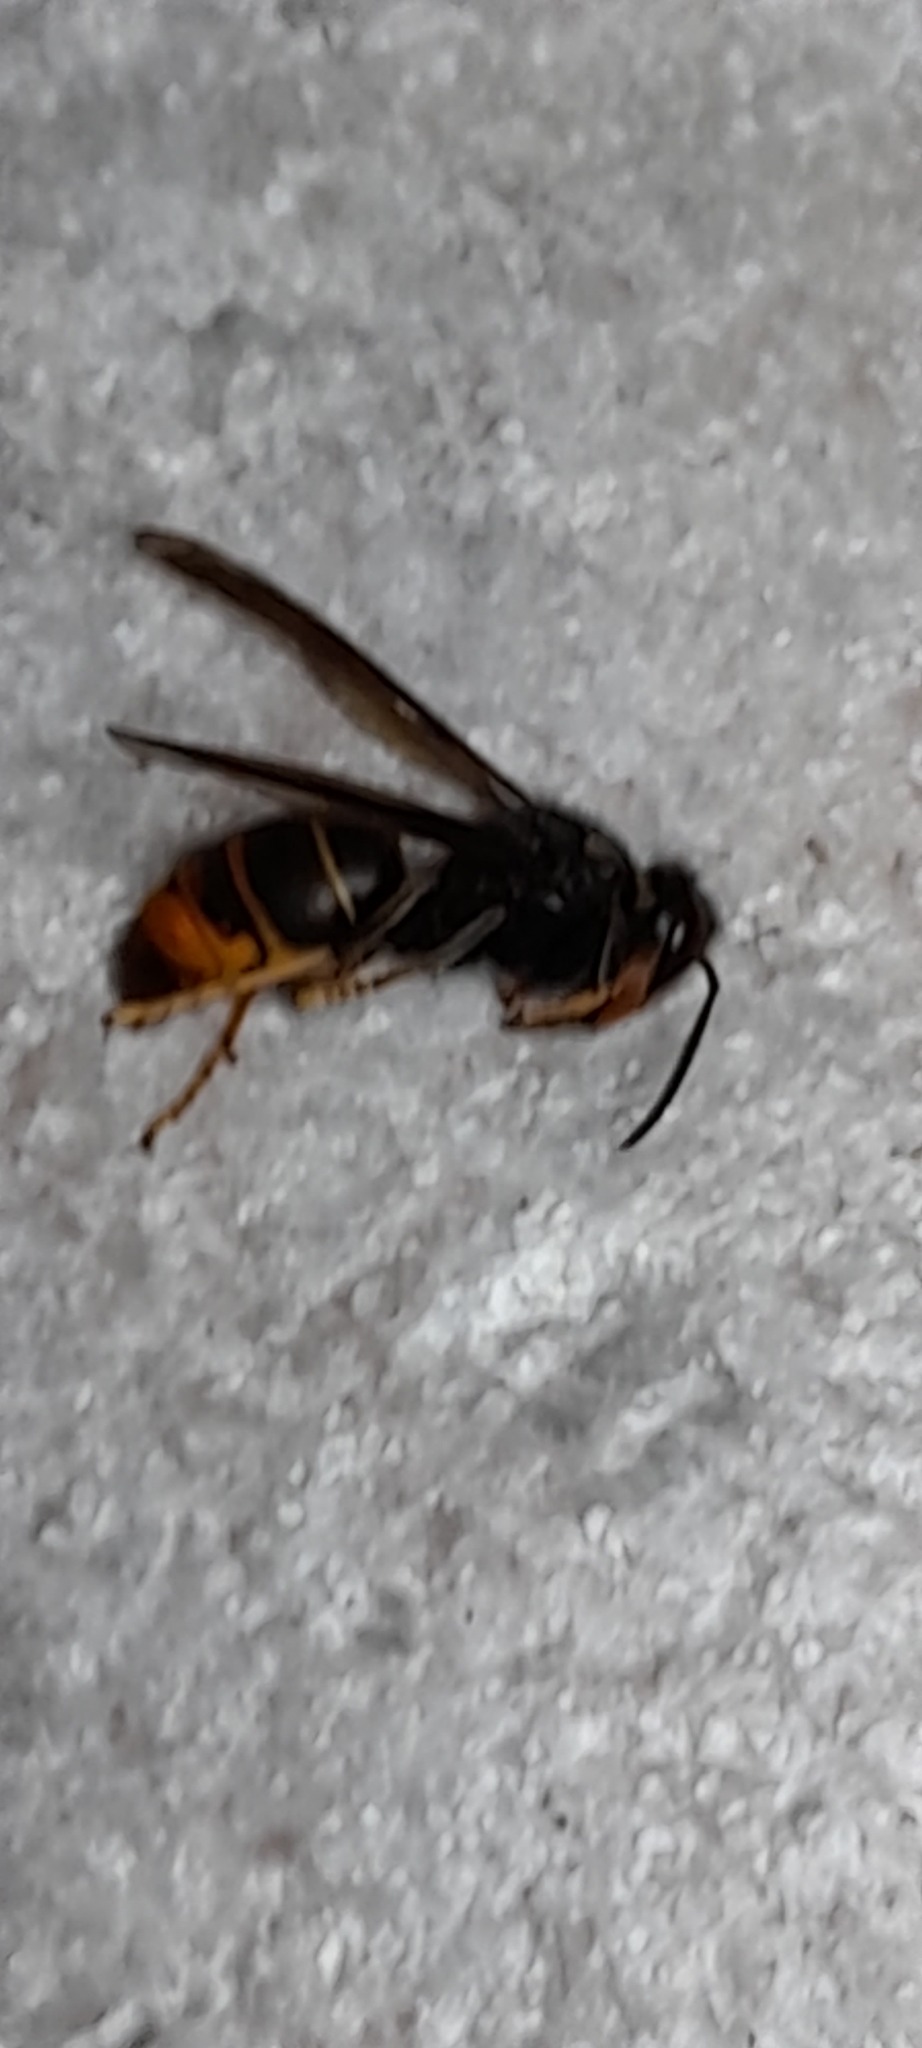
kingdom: Animalia
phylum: Arthropoda
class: Insecta
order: Hymenoptera
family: Vespidae
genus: Vespa
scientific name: Vespa velutina
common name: Asian hornet
